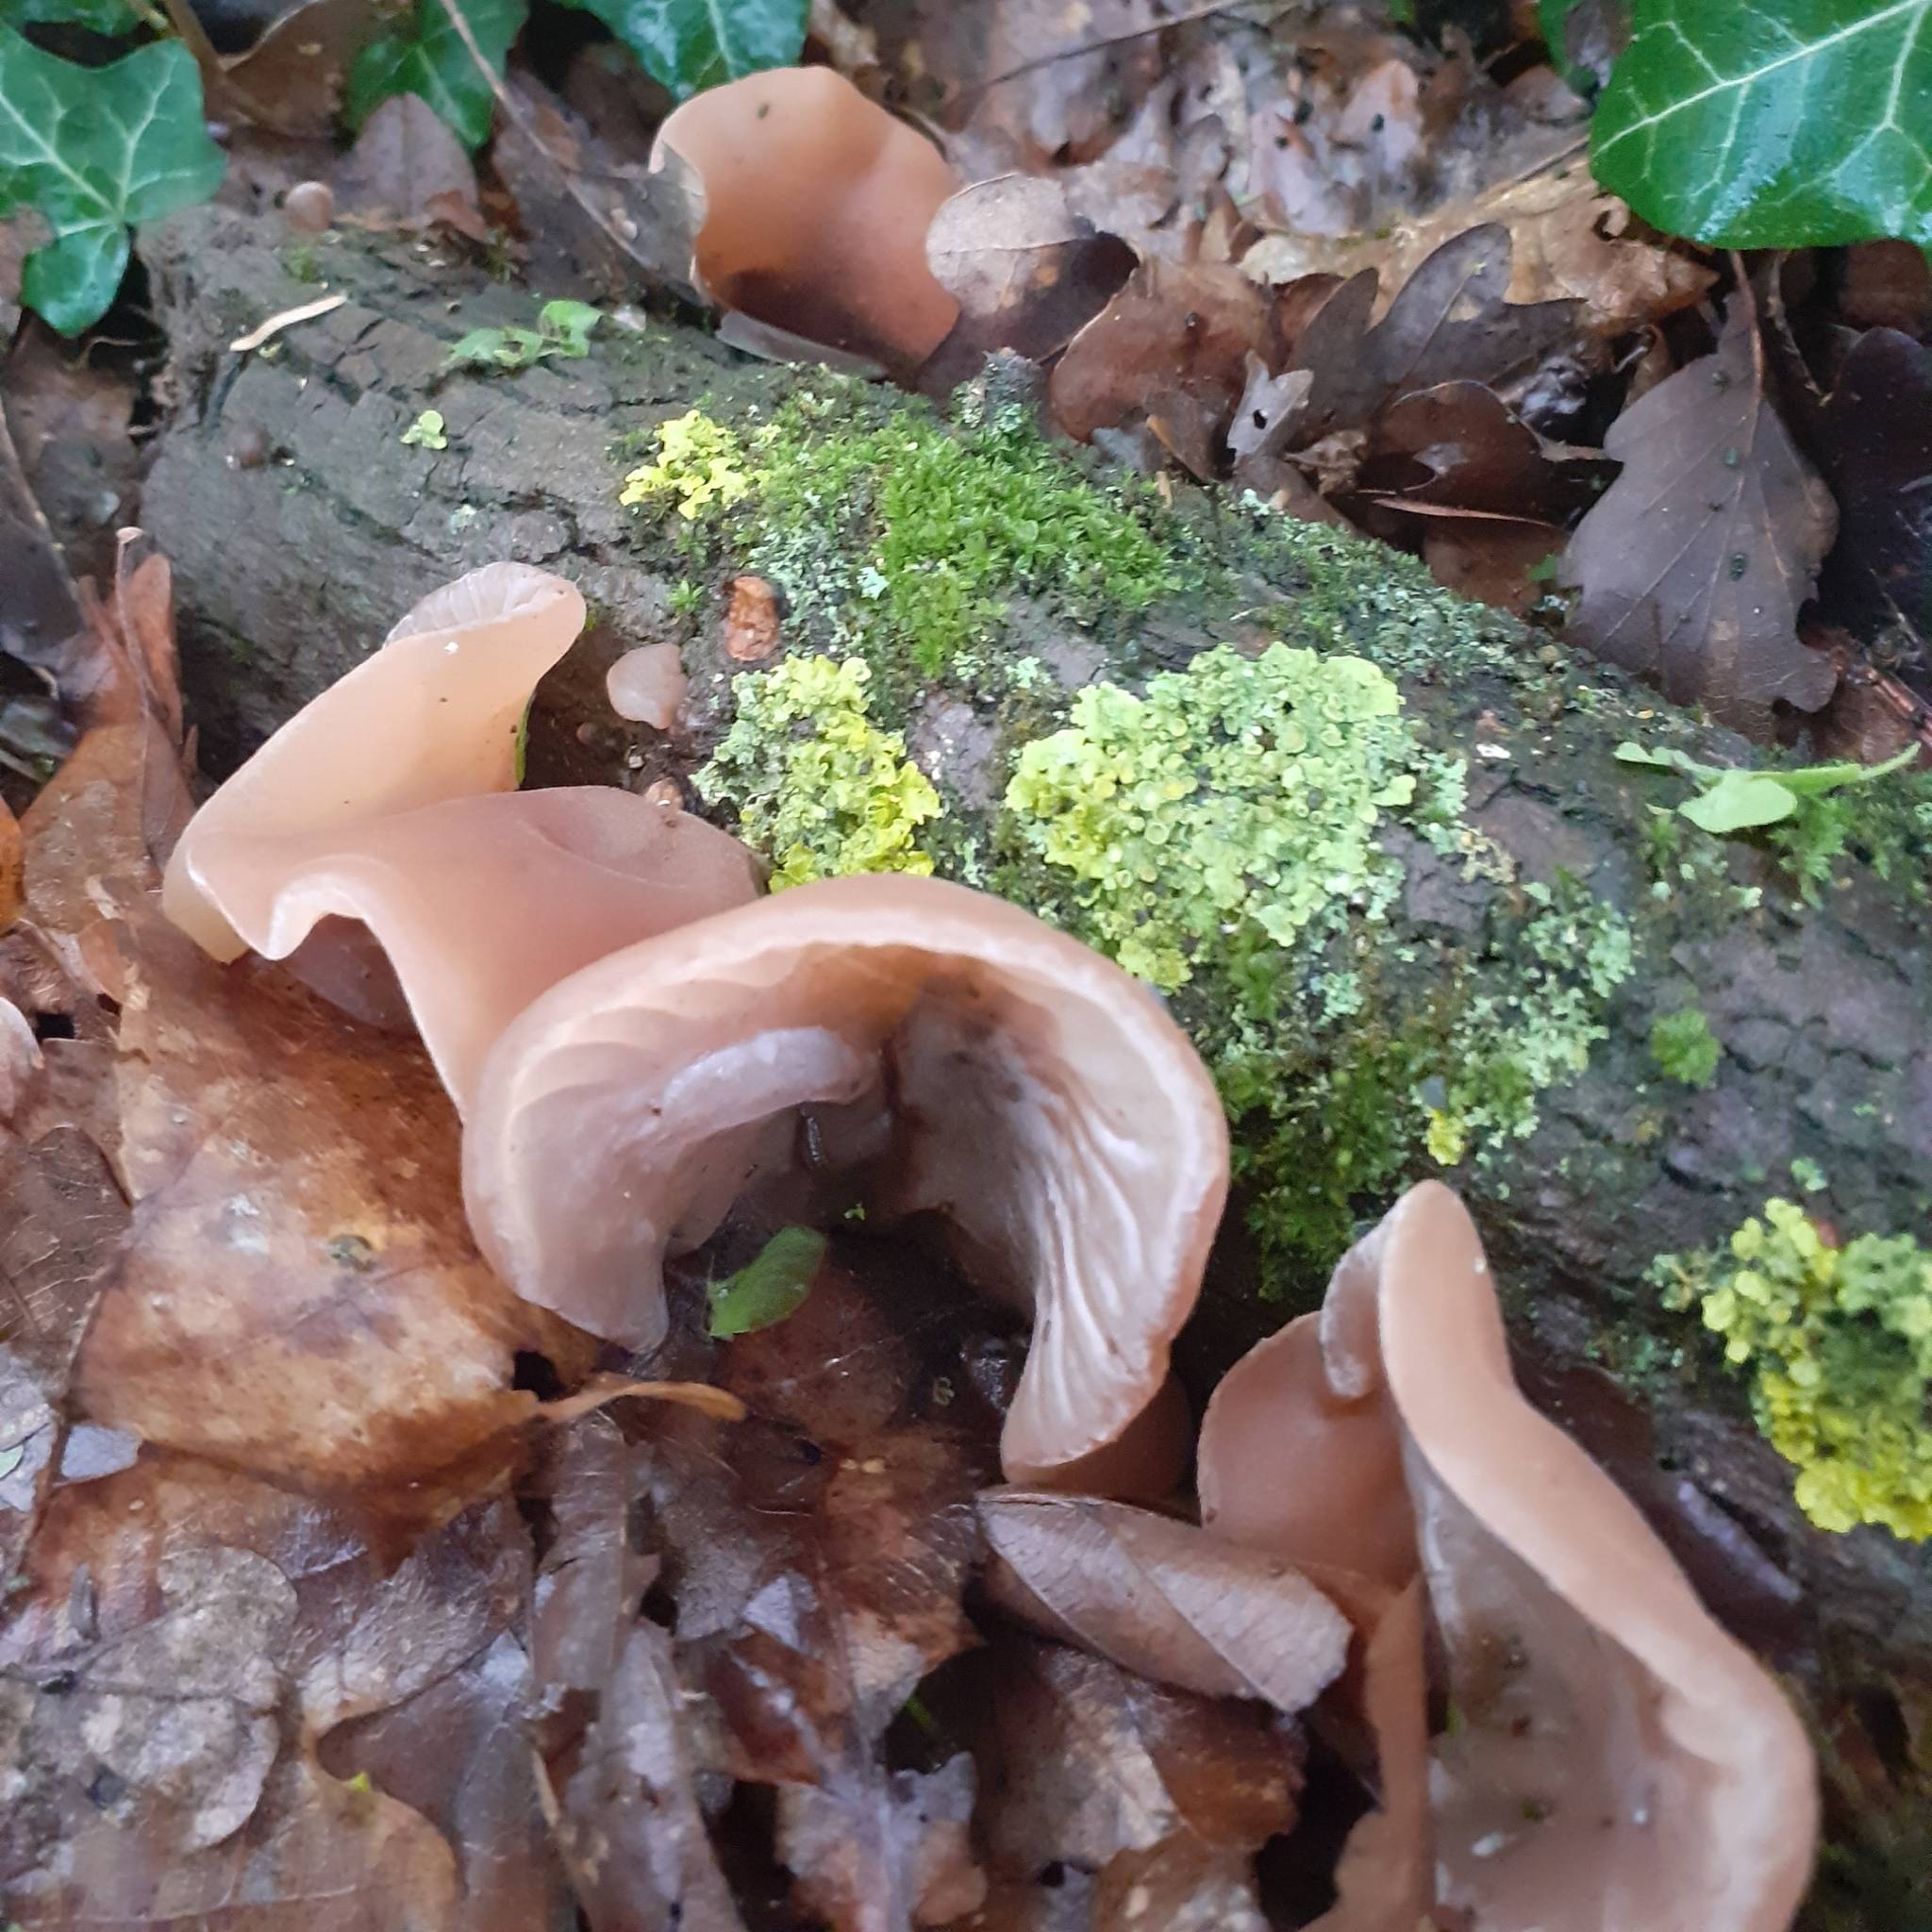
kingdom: Fungi
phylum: Basidiomycota
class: Agaricomycetes
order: Auriculariales
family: Auriculariaceae
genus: Auricularia
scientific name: Auricularia auricula-judae
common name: Jelly ear
